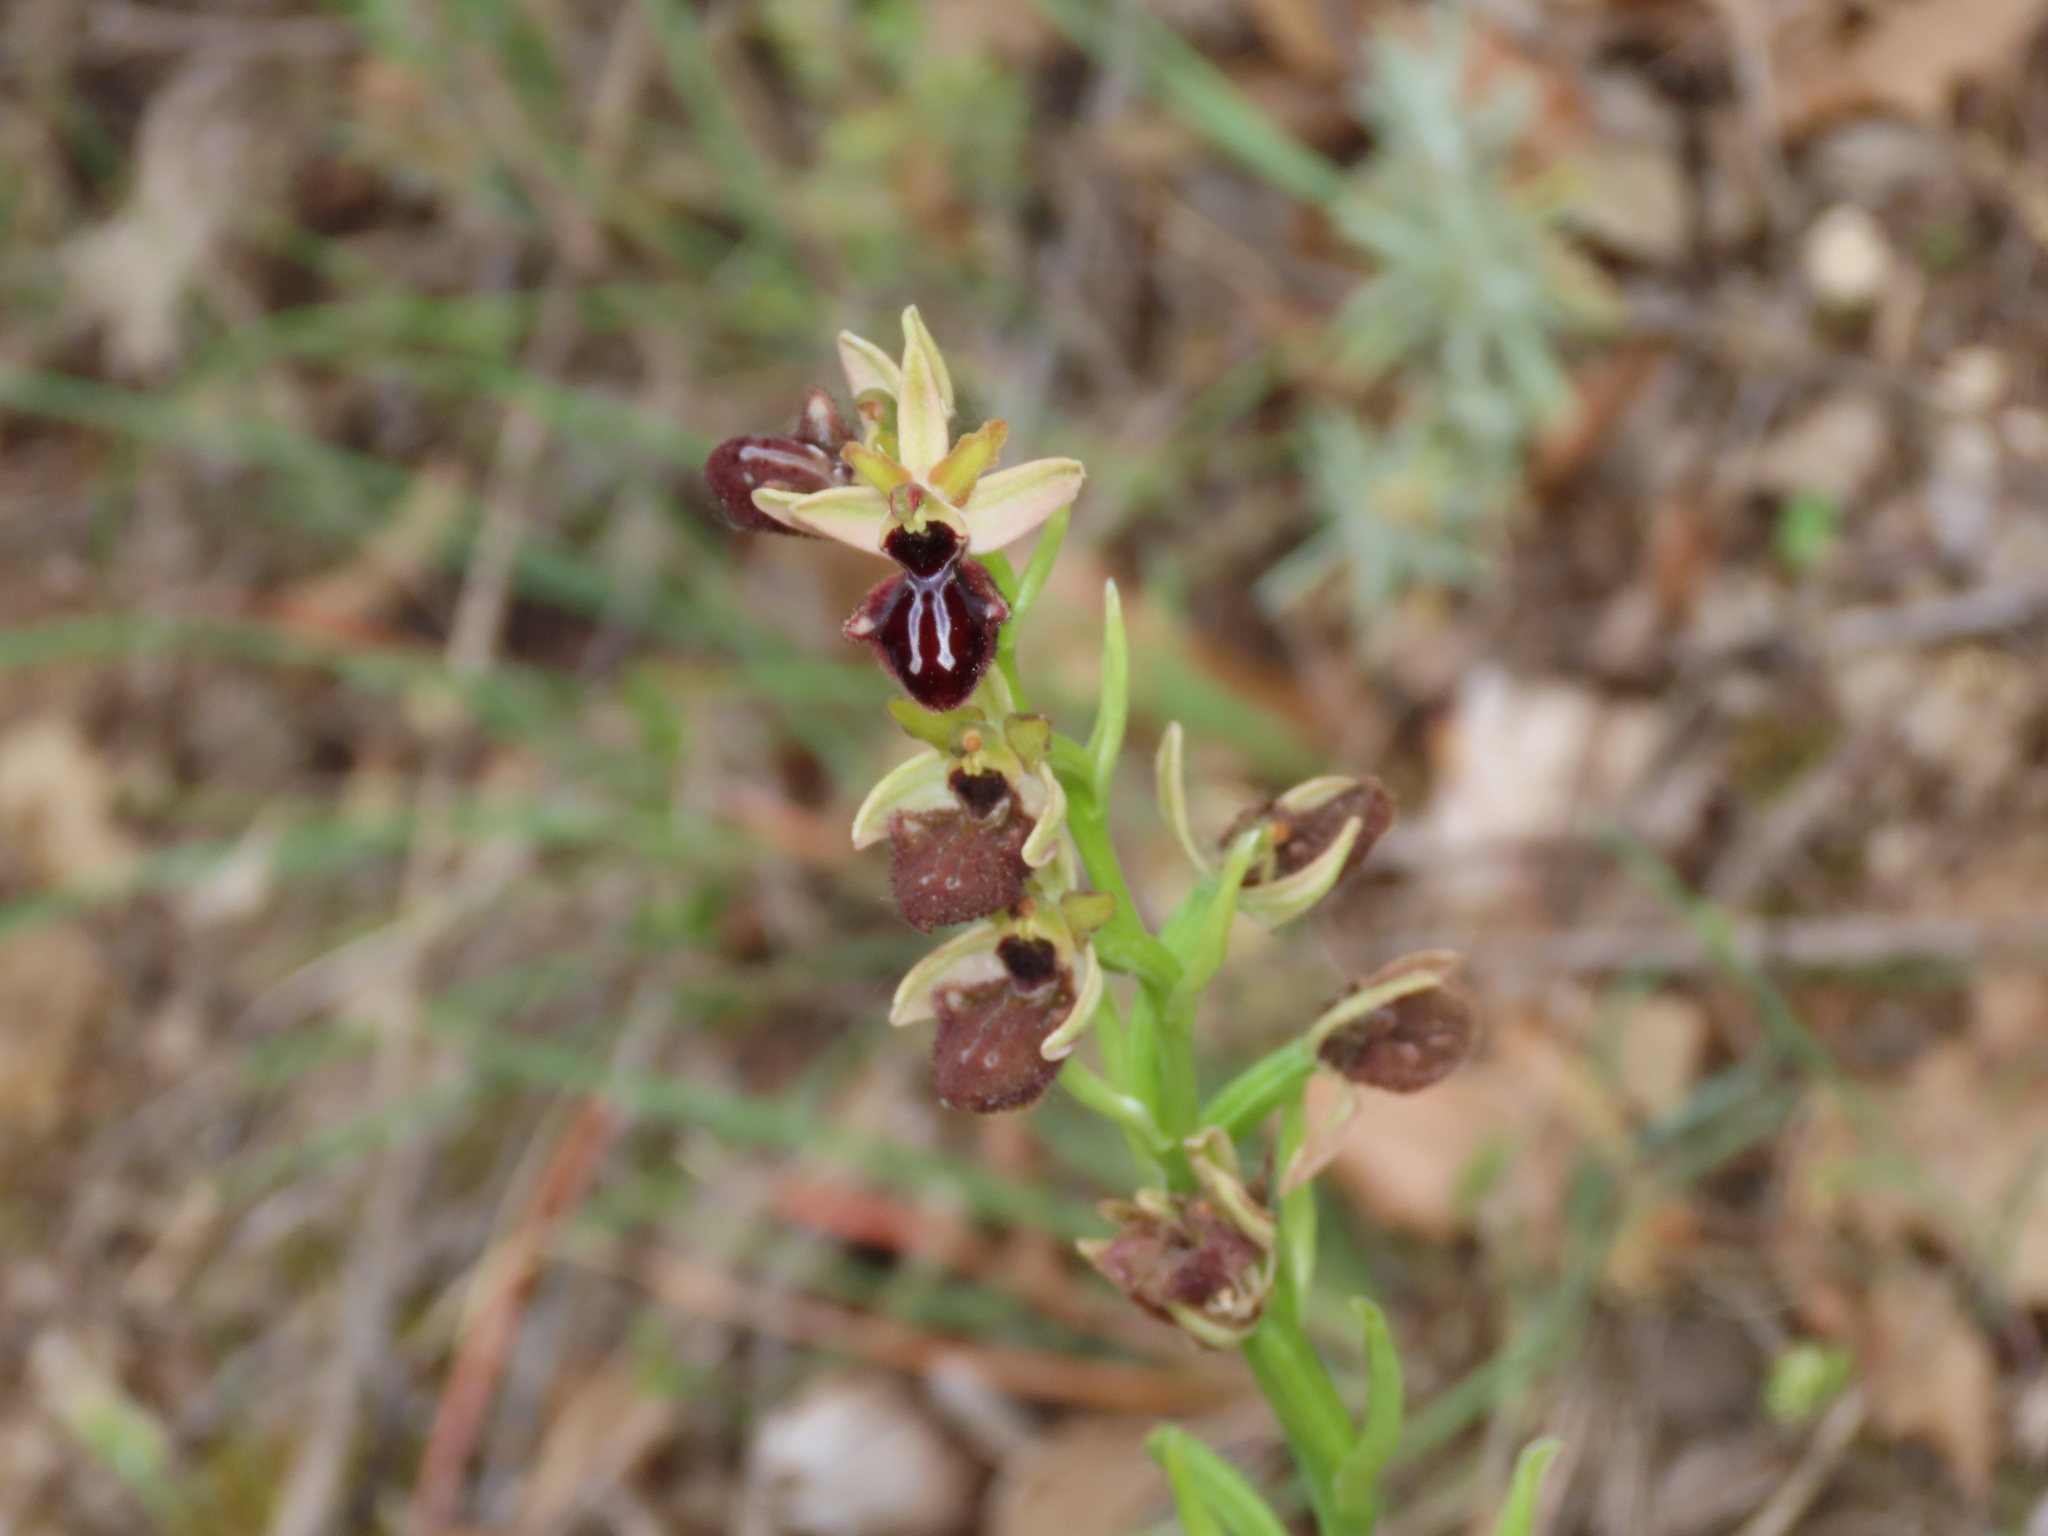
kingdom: Plantae
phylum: Tracheophyta
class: Liliopsida
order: Asparagales
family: Orchidaceae
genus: Ophrys
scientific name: Ophrys sphegodes
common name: Early spider-orchid
